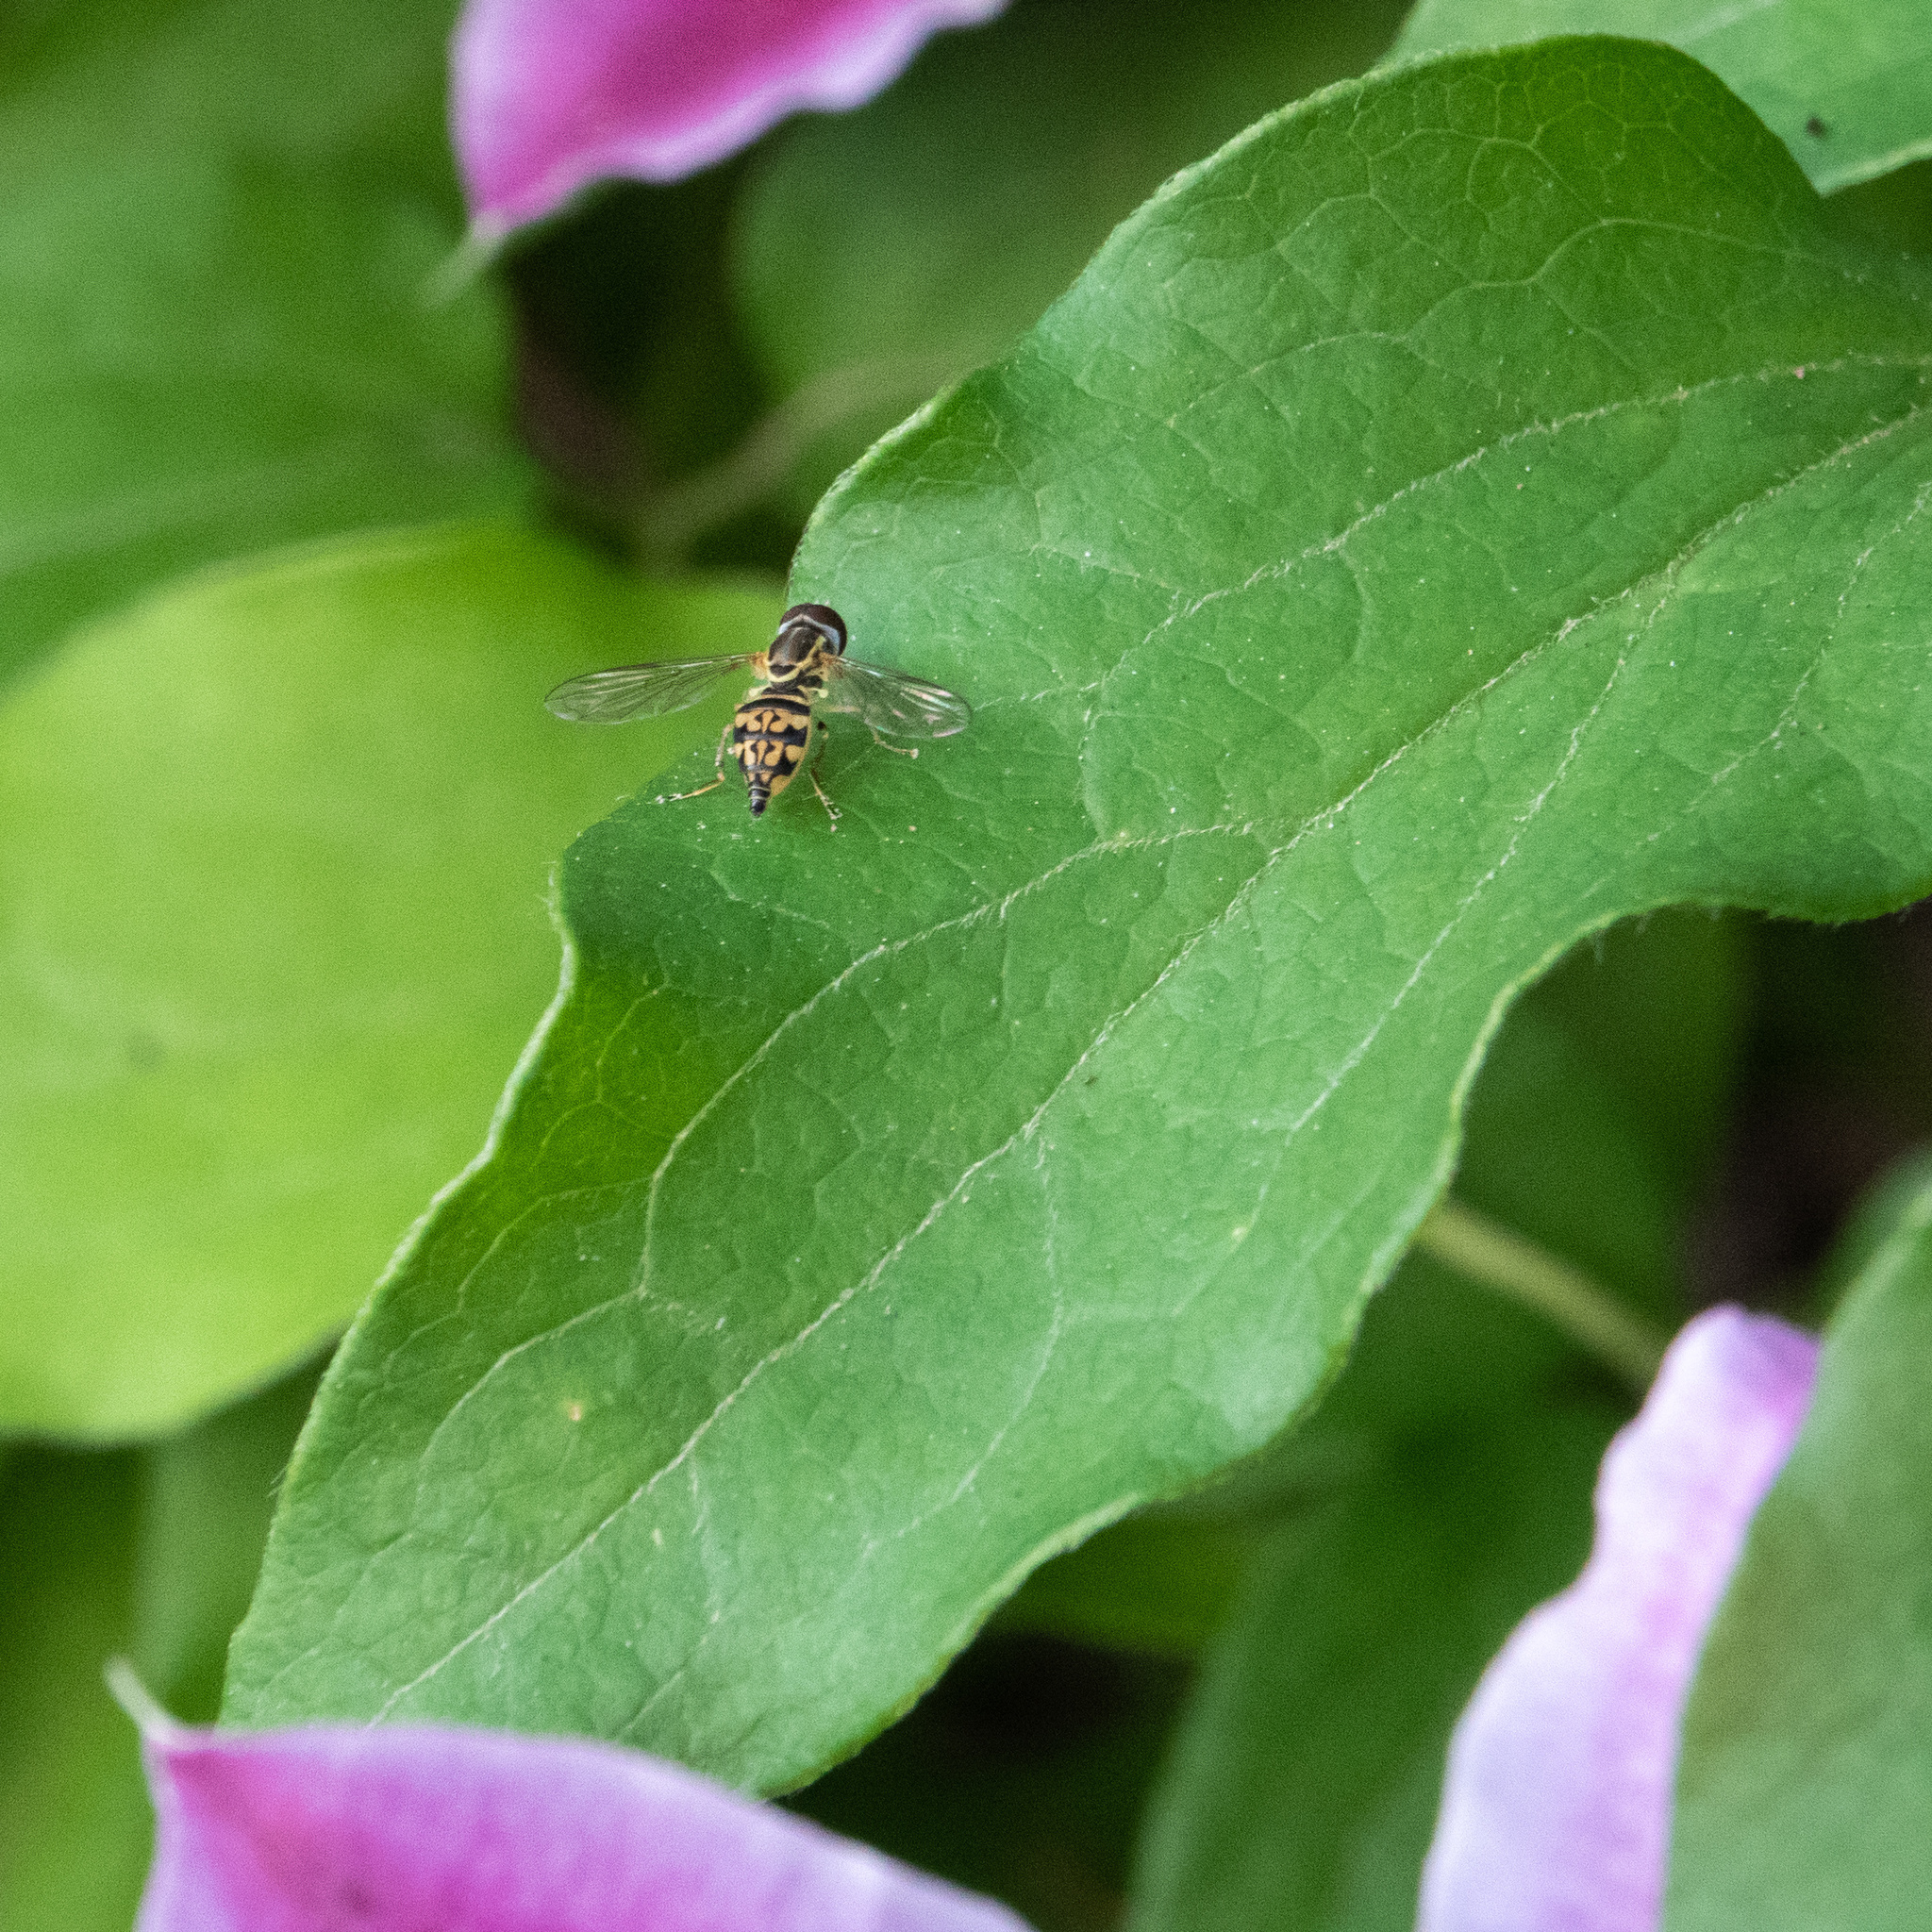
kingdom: Animalia
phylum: Arthropoda
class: Insecta
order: Diptera
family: Syrphidae
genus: Toxomerus
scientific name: Toxomerus geminatus
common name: Eastern calligrapher
